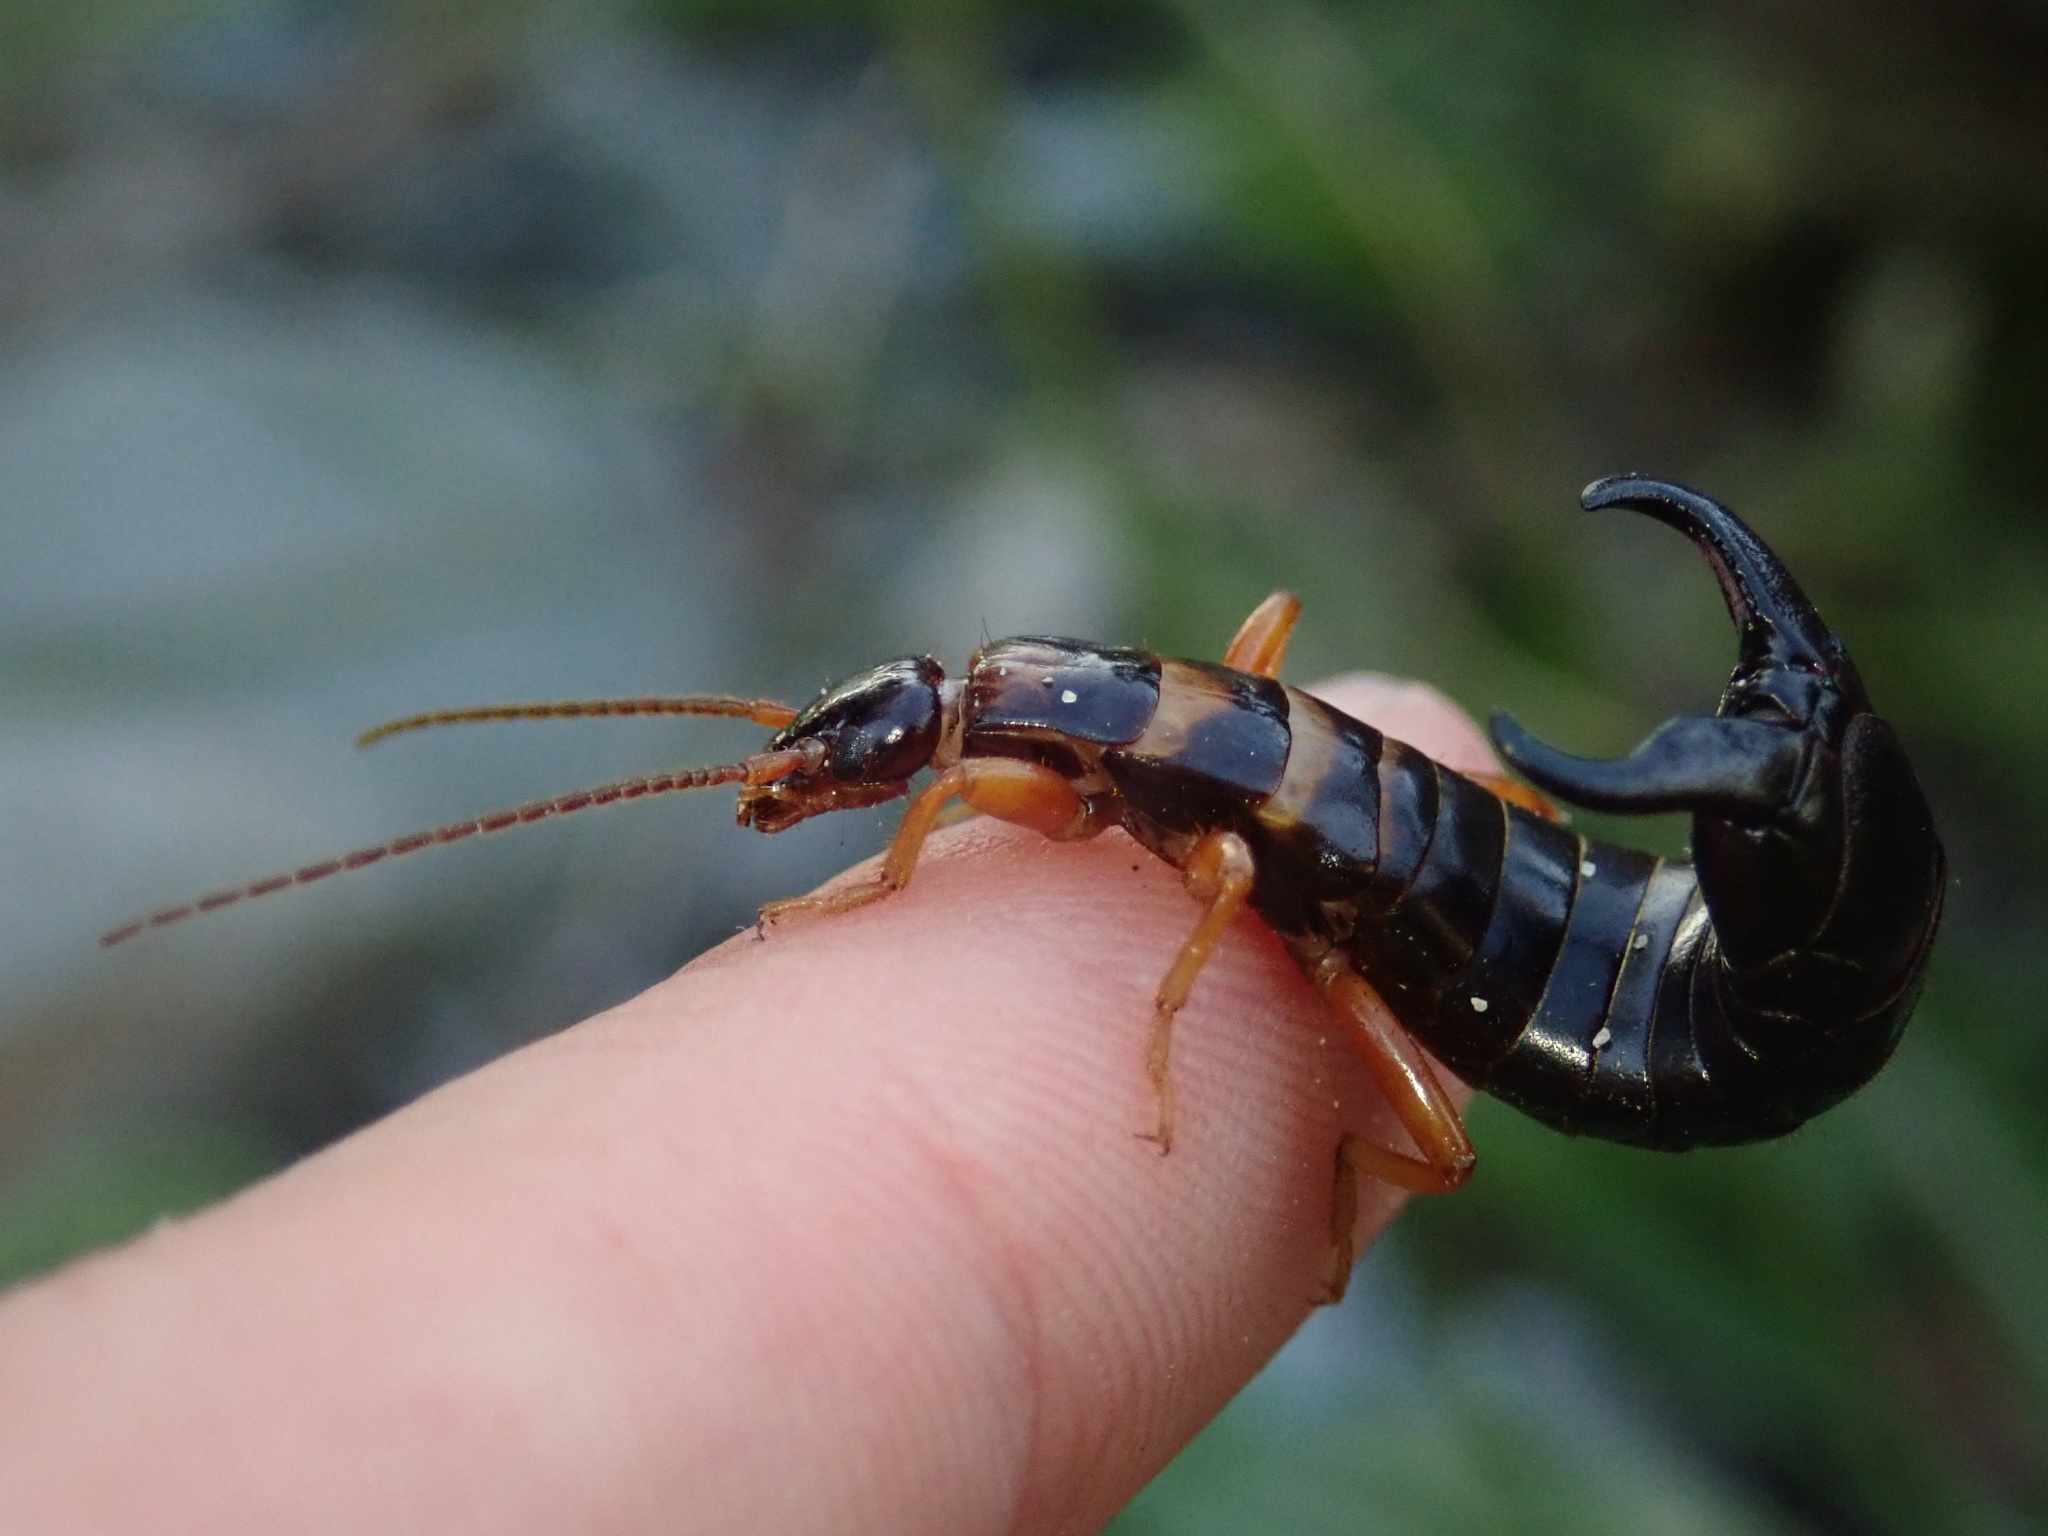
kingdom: Animalia
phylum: Arthropoda
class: Insecta
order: Dermaptera
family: Anisolabididae
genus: Anisolabis
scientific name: Anisolabis littorea
